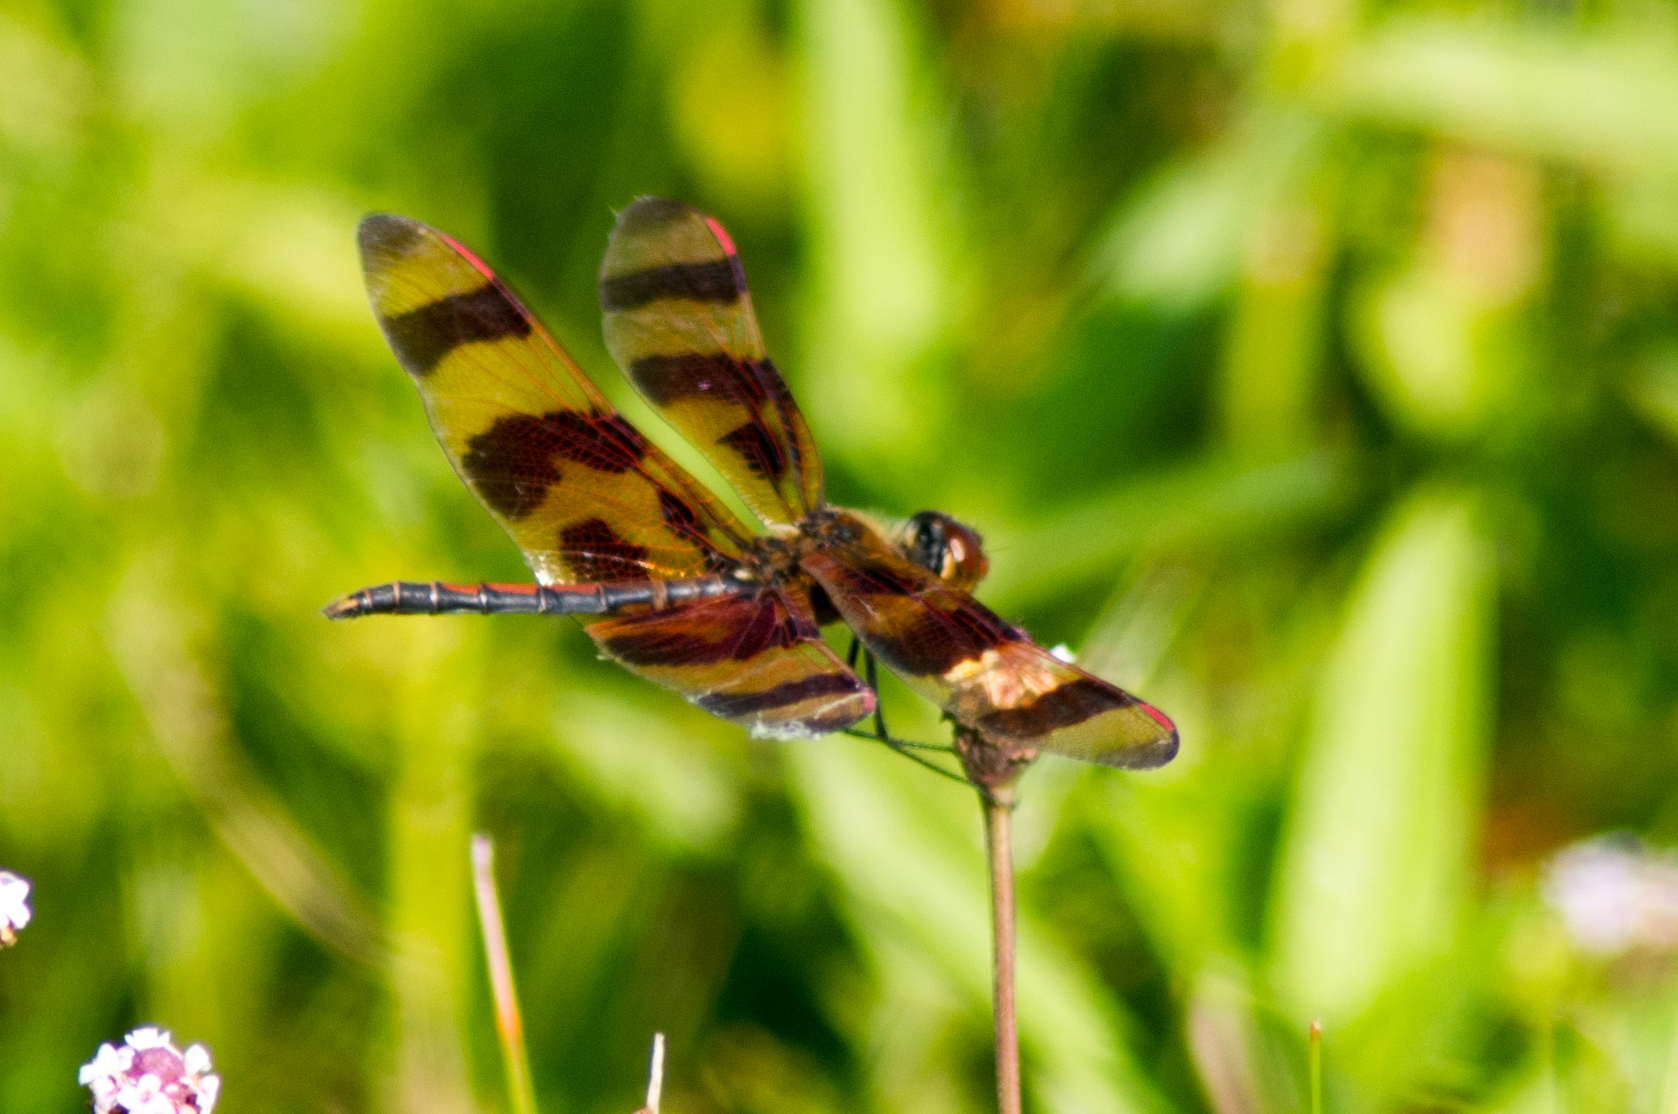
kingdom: Animalia
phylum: Arthropoda
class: Insecta
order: Odonata
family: Libellulidae
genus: Celithemis
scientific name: Celithemis eponina
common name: Halloween pennant
